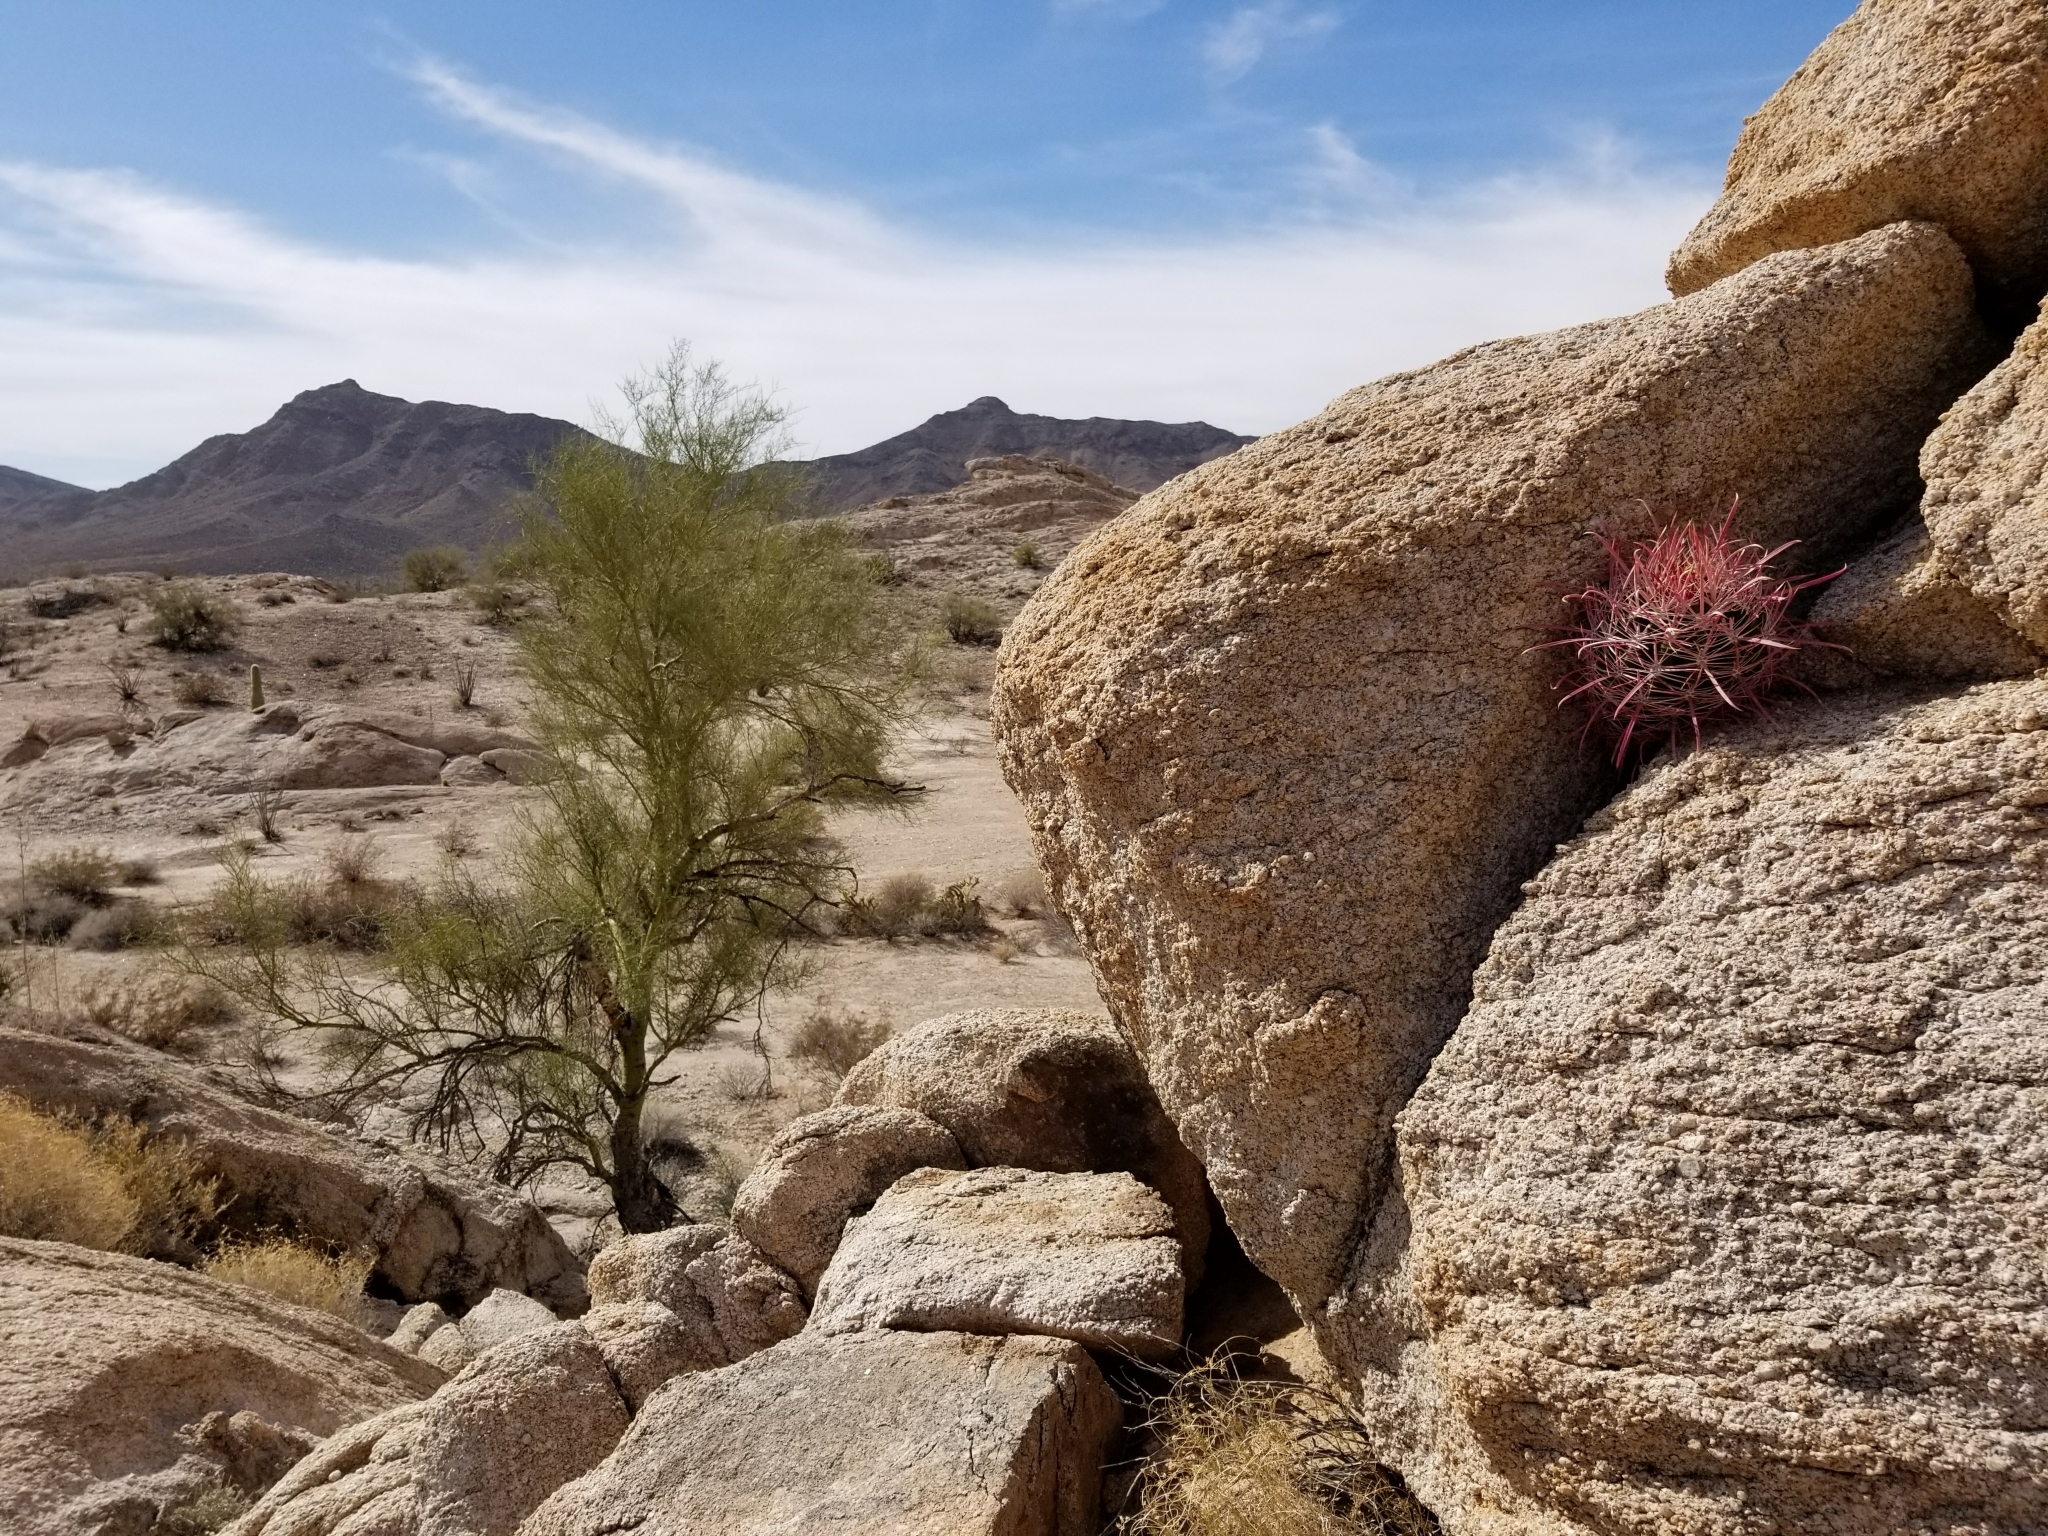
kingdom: Plantae
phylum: Tracheophyta
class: Magnoliopsida
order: Caryophyllales
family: Cactaceae
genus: Ferocactus
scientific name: Ferocactus cylindraceus
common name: California barrel cactus
